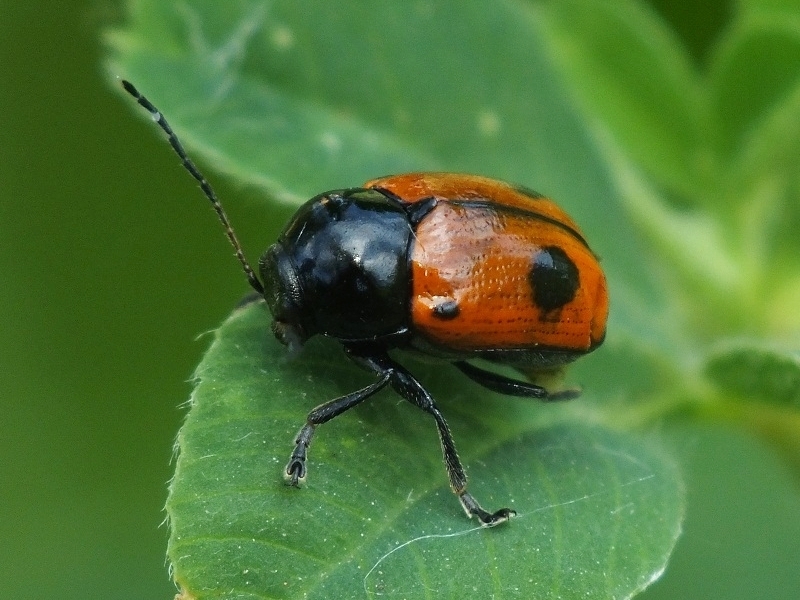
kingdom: Animalia
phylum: Arthropoda
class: Insecta
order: Coleoptera
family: Chrysomelidae
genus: Chiridopsis
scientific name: Chiridopsis bipunctata
